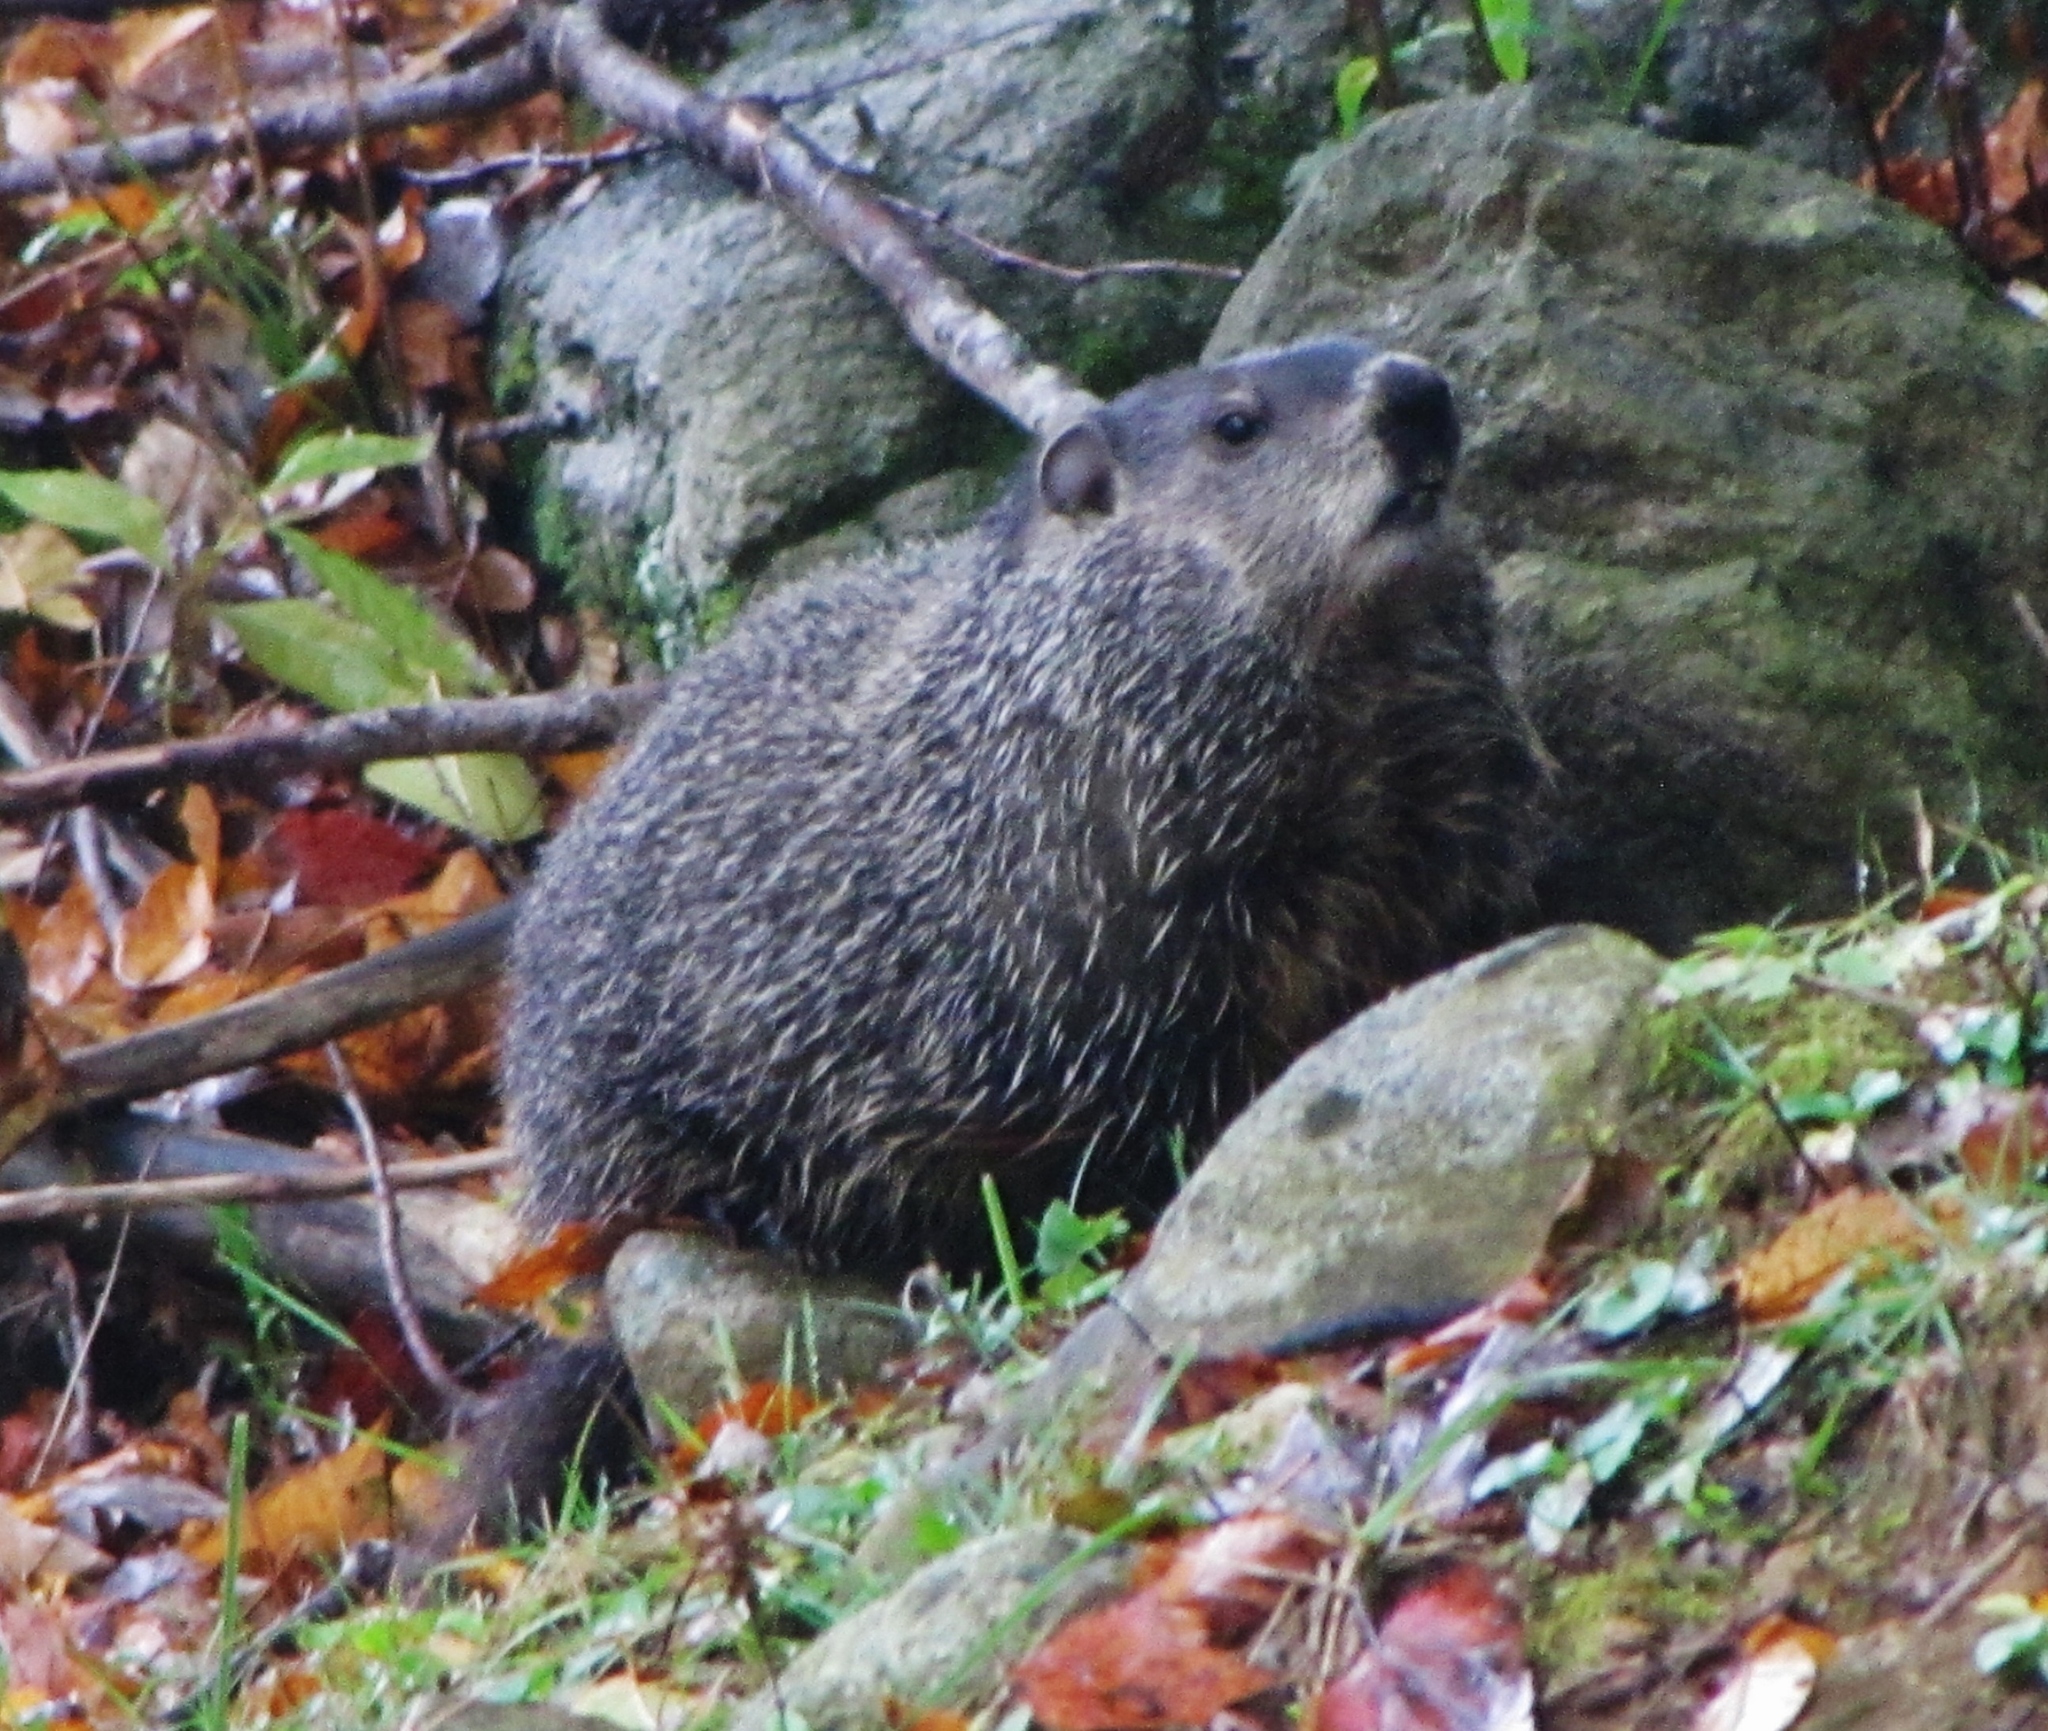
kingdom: Animalia
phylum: Chordata
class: Mammalia
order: Rodentia
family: Sciuridae
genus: Marmota
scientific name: Marmota monax
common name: Groundhog
